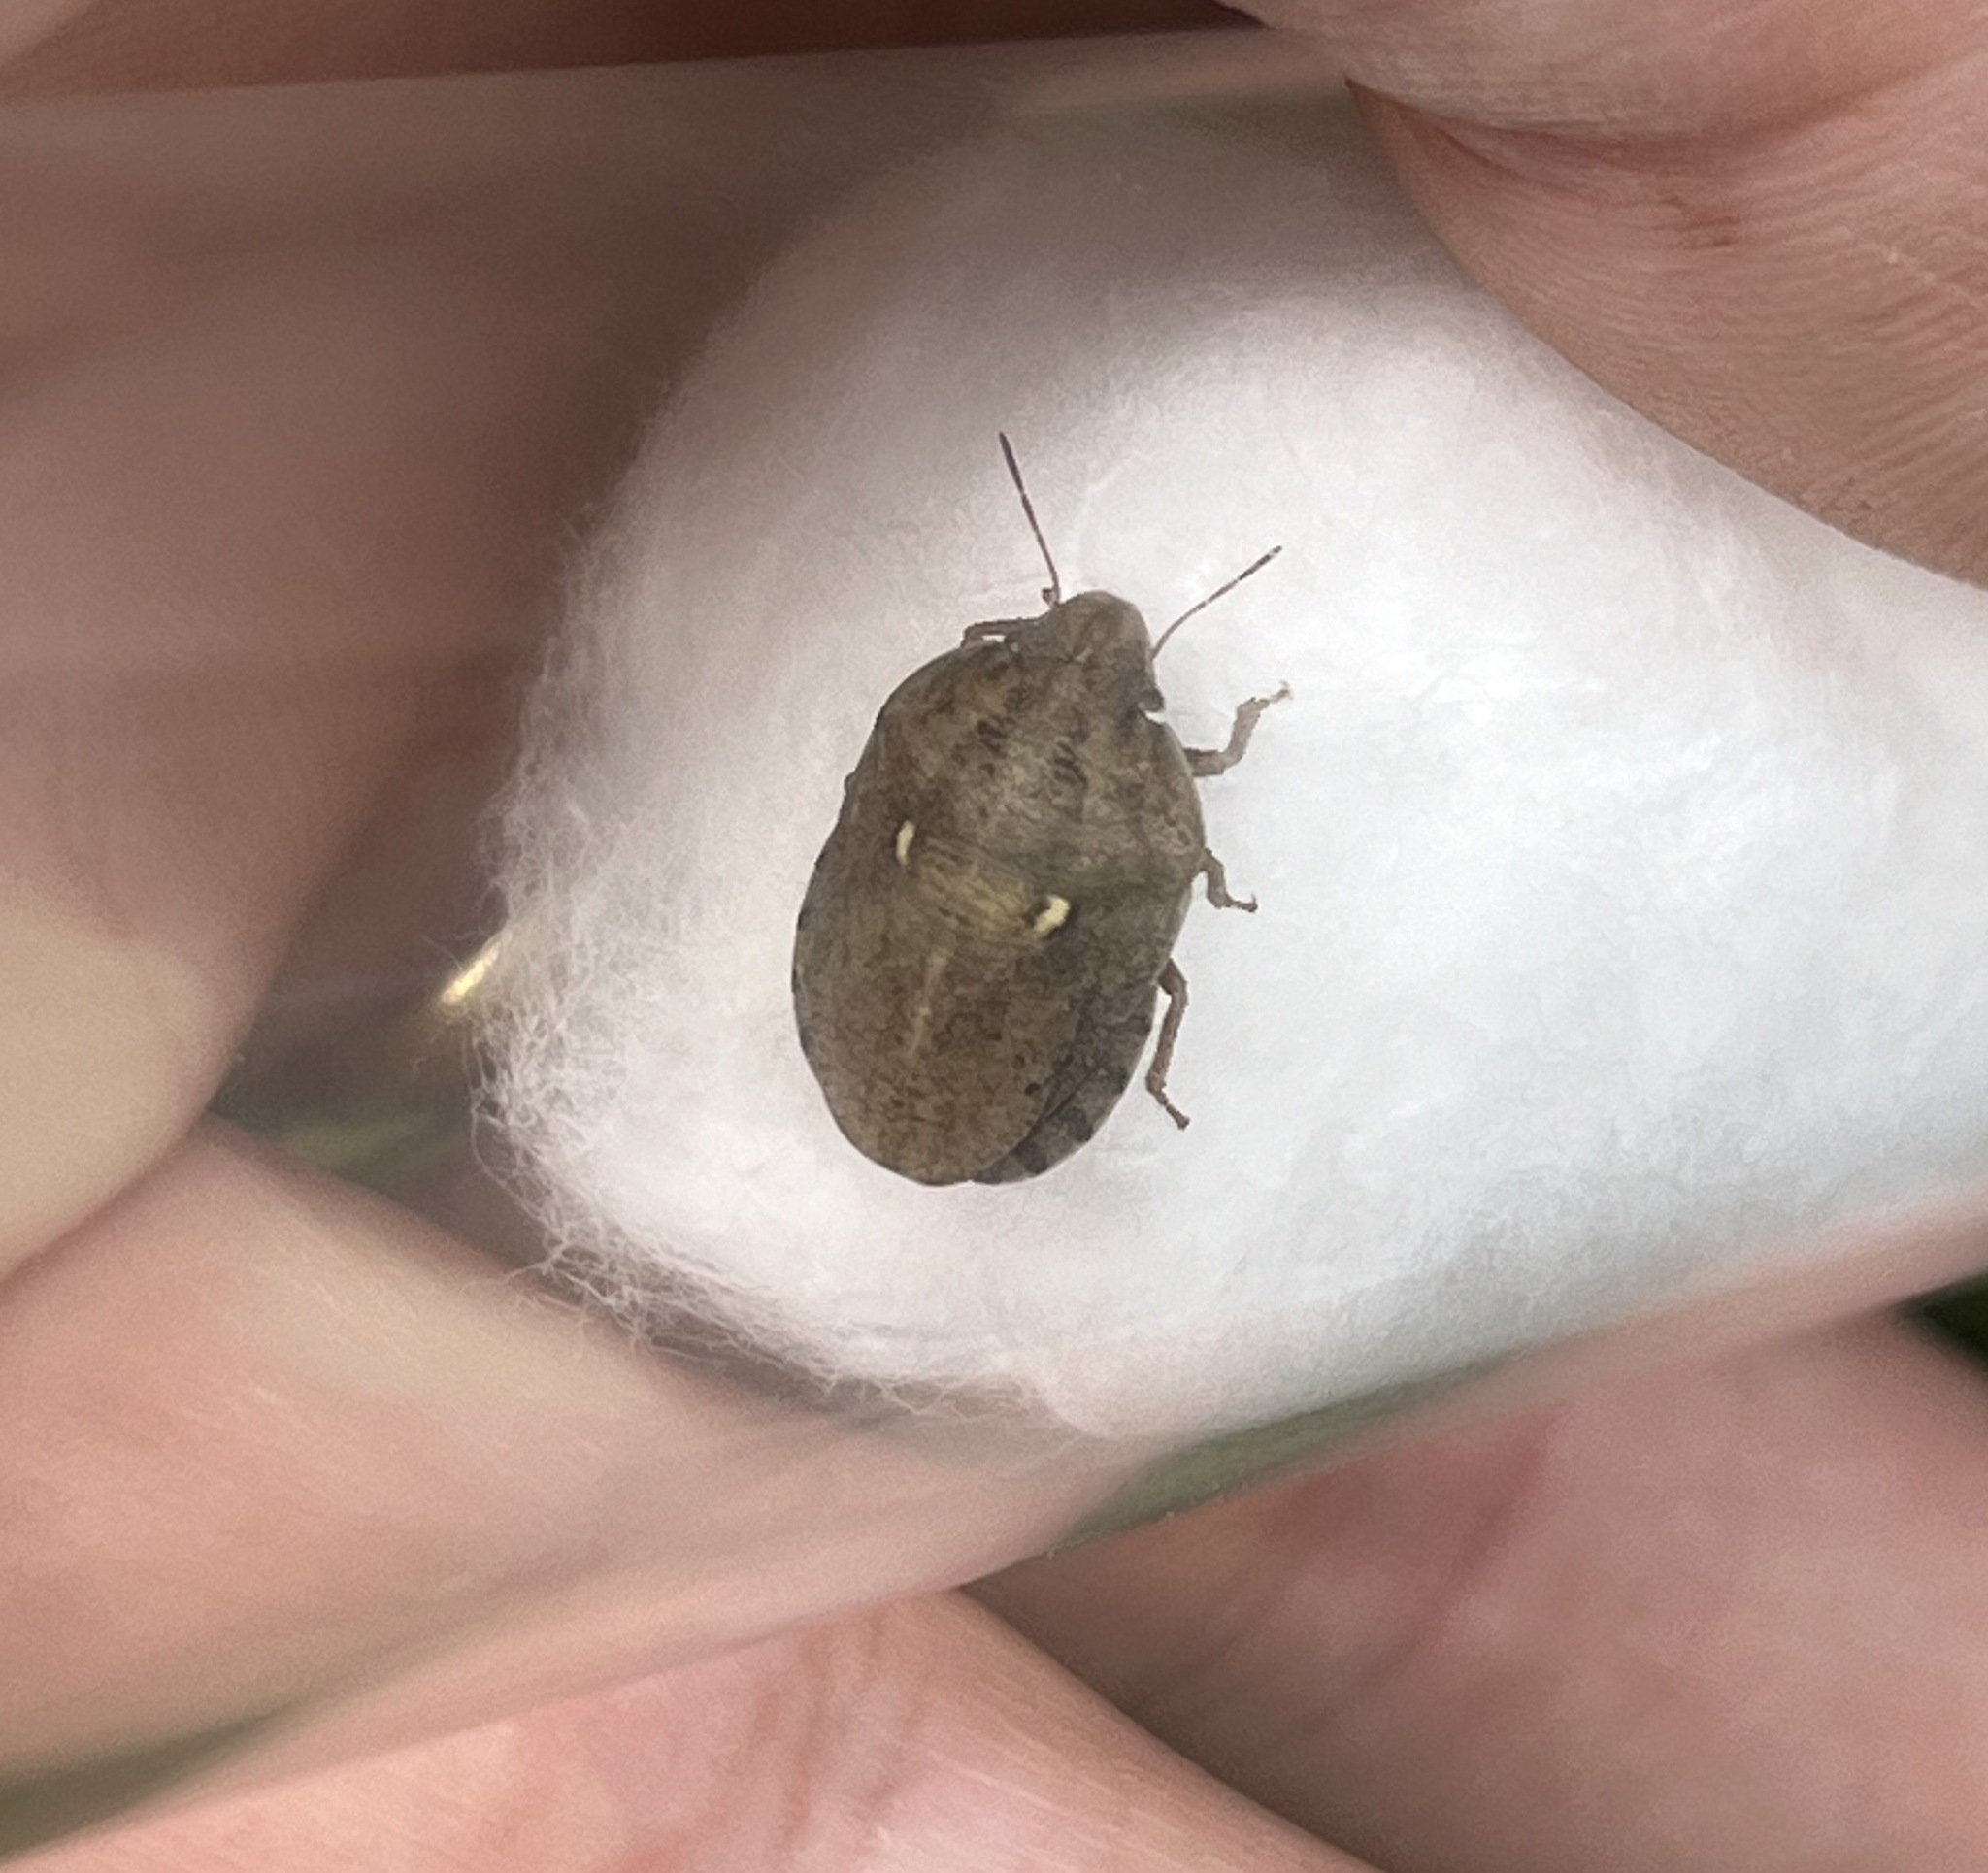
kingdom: Animalia
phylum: Arthropoda
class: Insecta
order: Hemiptera
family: Scutelleridae
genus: Eurygaster
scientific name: Eurygaster integriceps
